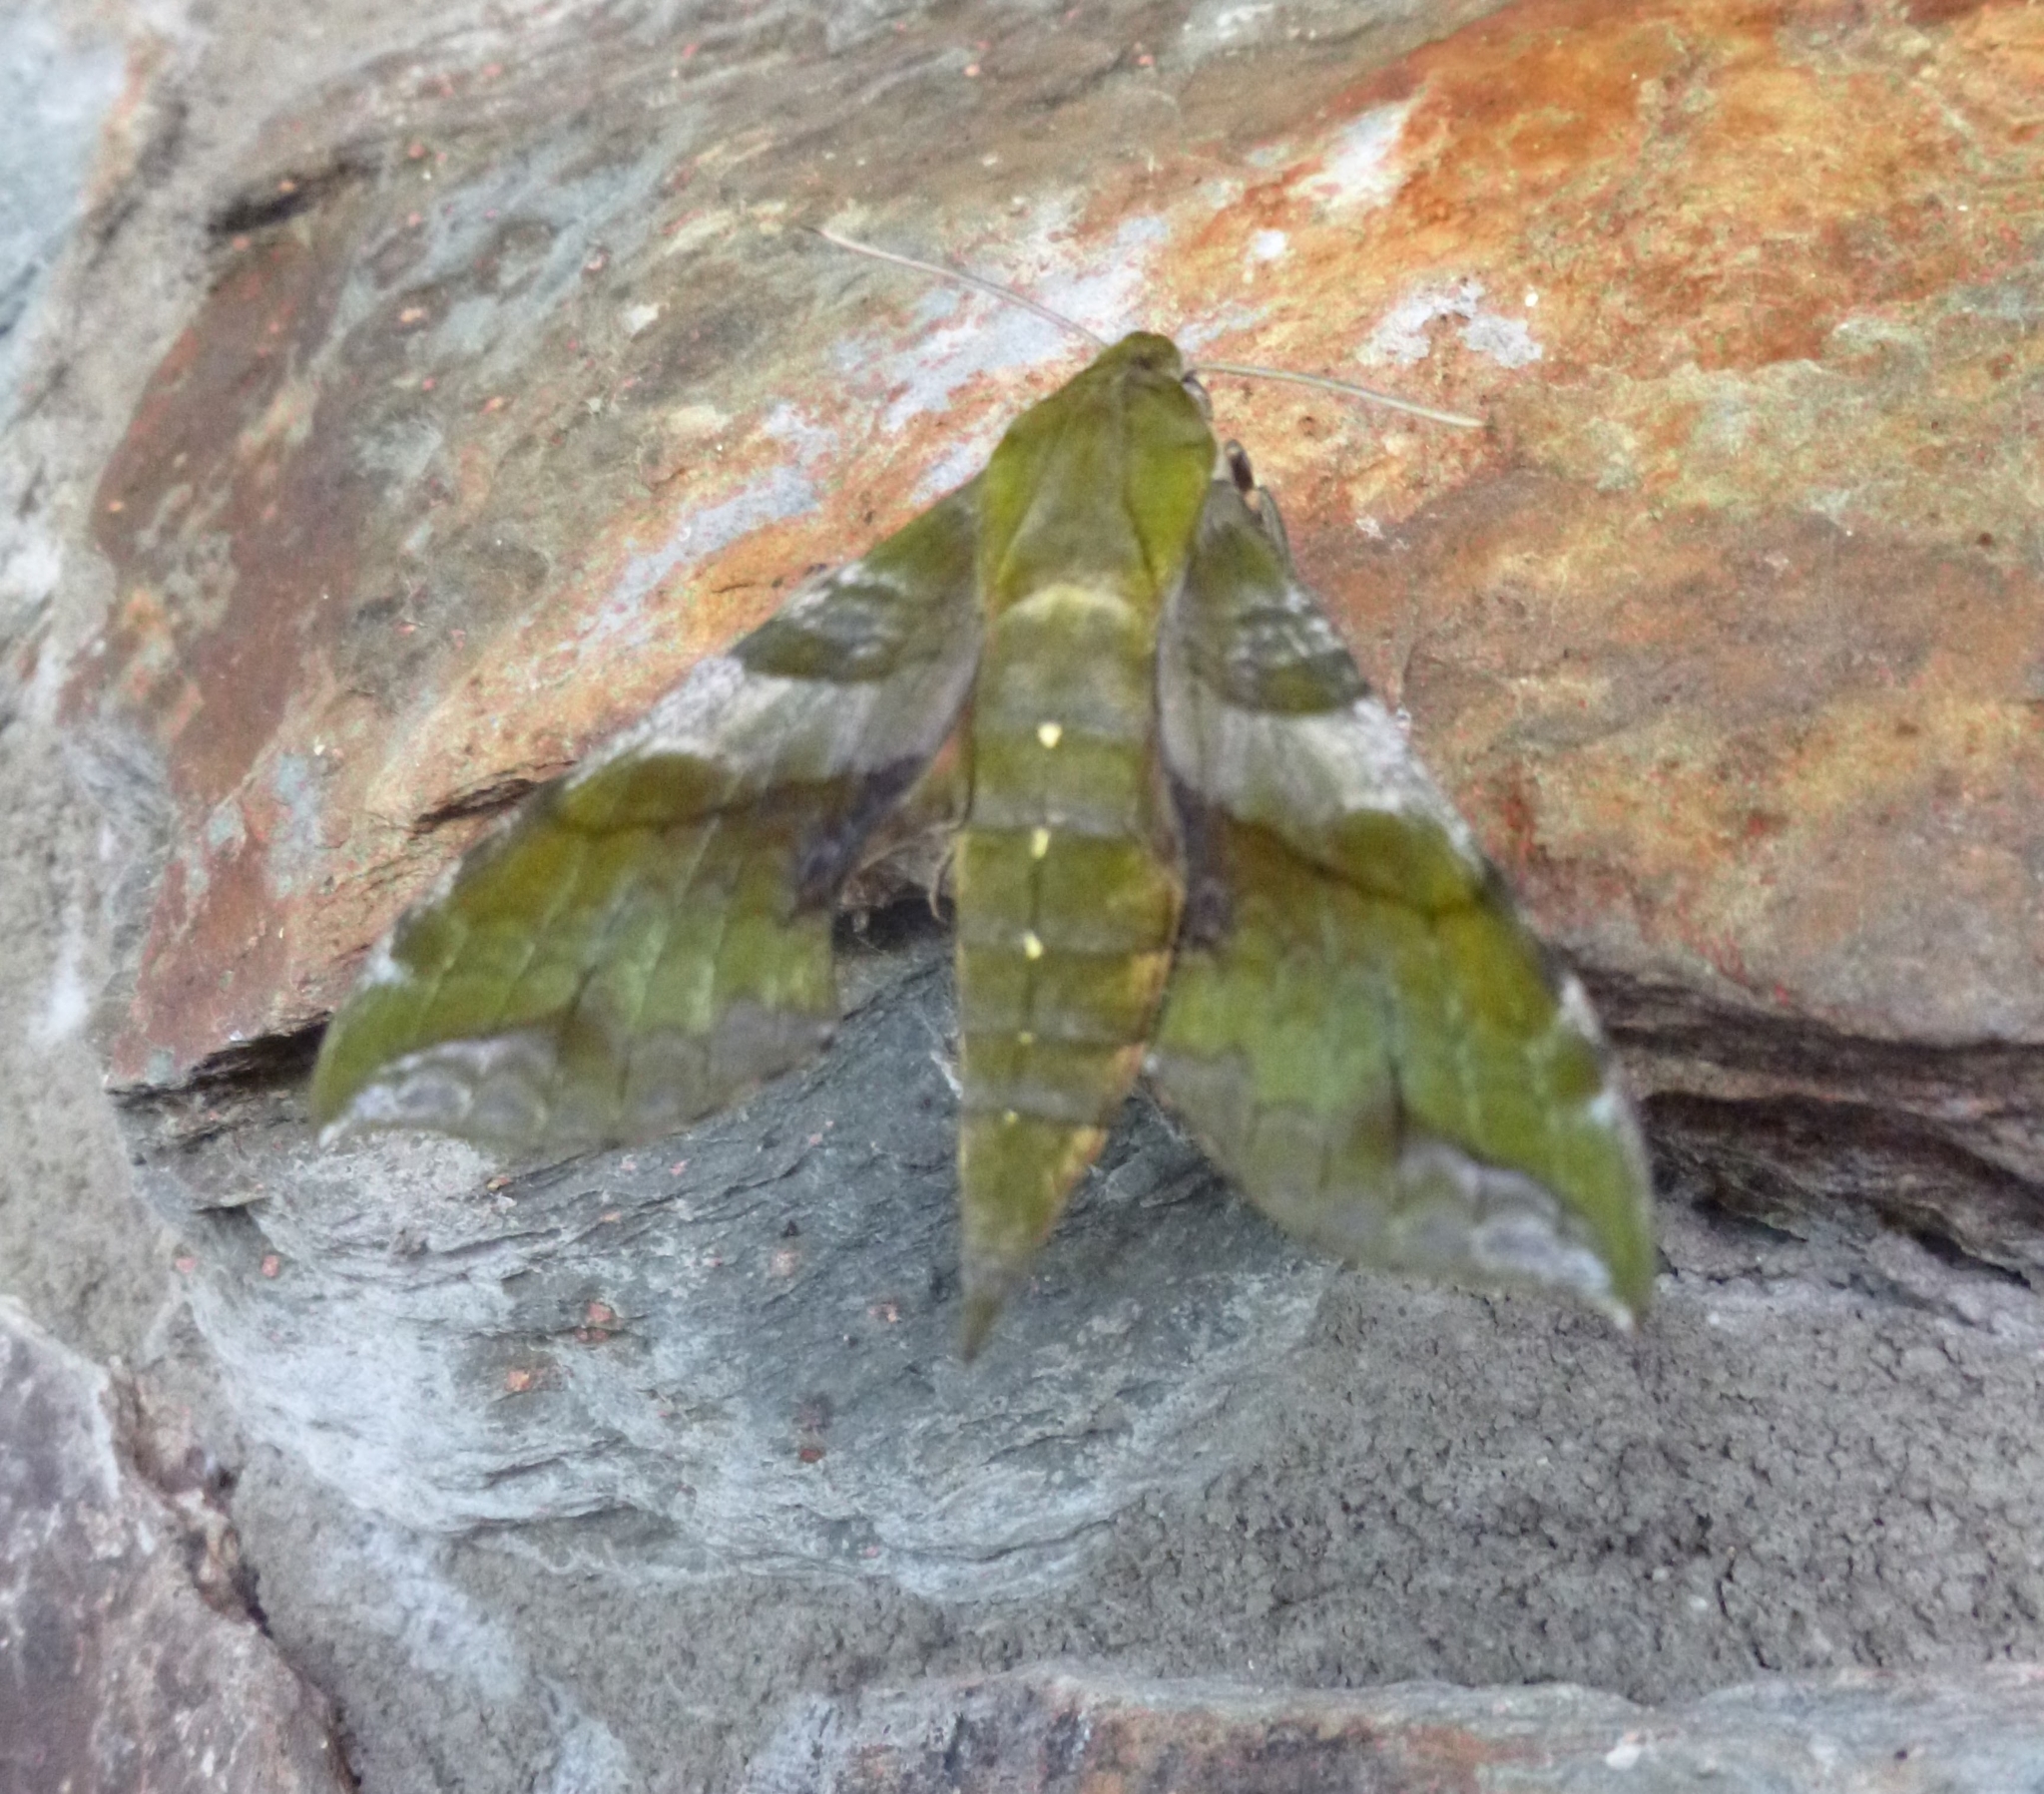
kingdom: Animalia
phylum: Arthropoda
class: Insecta
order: Lepidoptera
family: Sphingidae
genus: Xylophanes
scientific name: Xylophanes pluto
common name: Pluto sphinx
